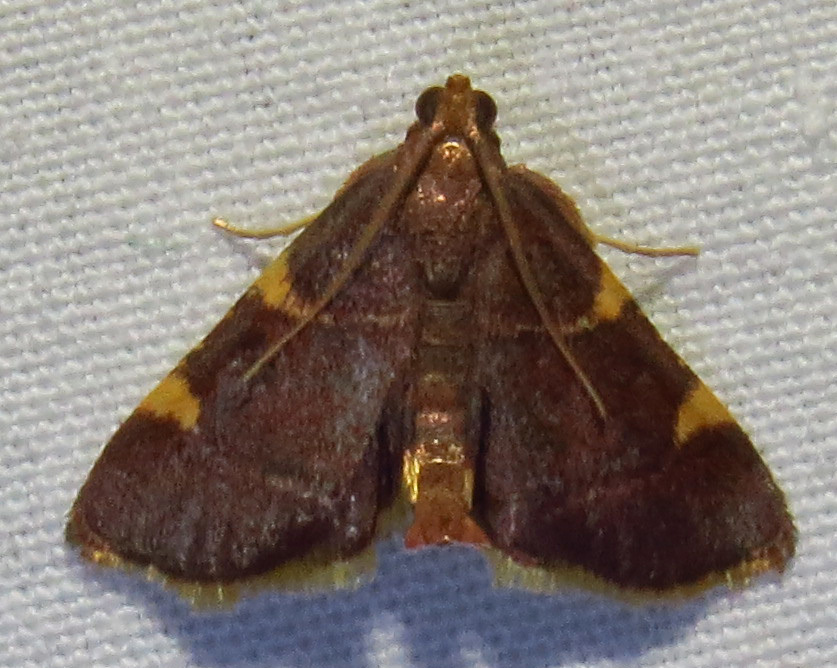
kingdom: Animalia
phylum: Arthropoda
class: Insecta
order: Lepidoptera
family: Pyralidae
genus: Hypsopygia
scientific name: Hypsopygia olinalis
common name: Yellow-fringed dolichomia moth
